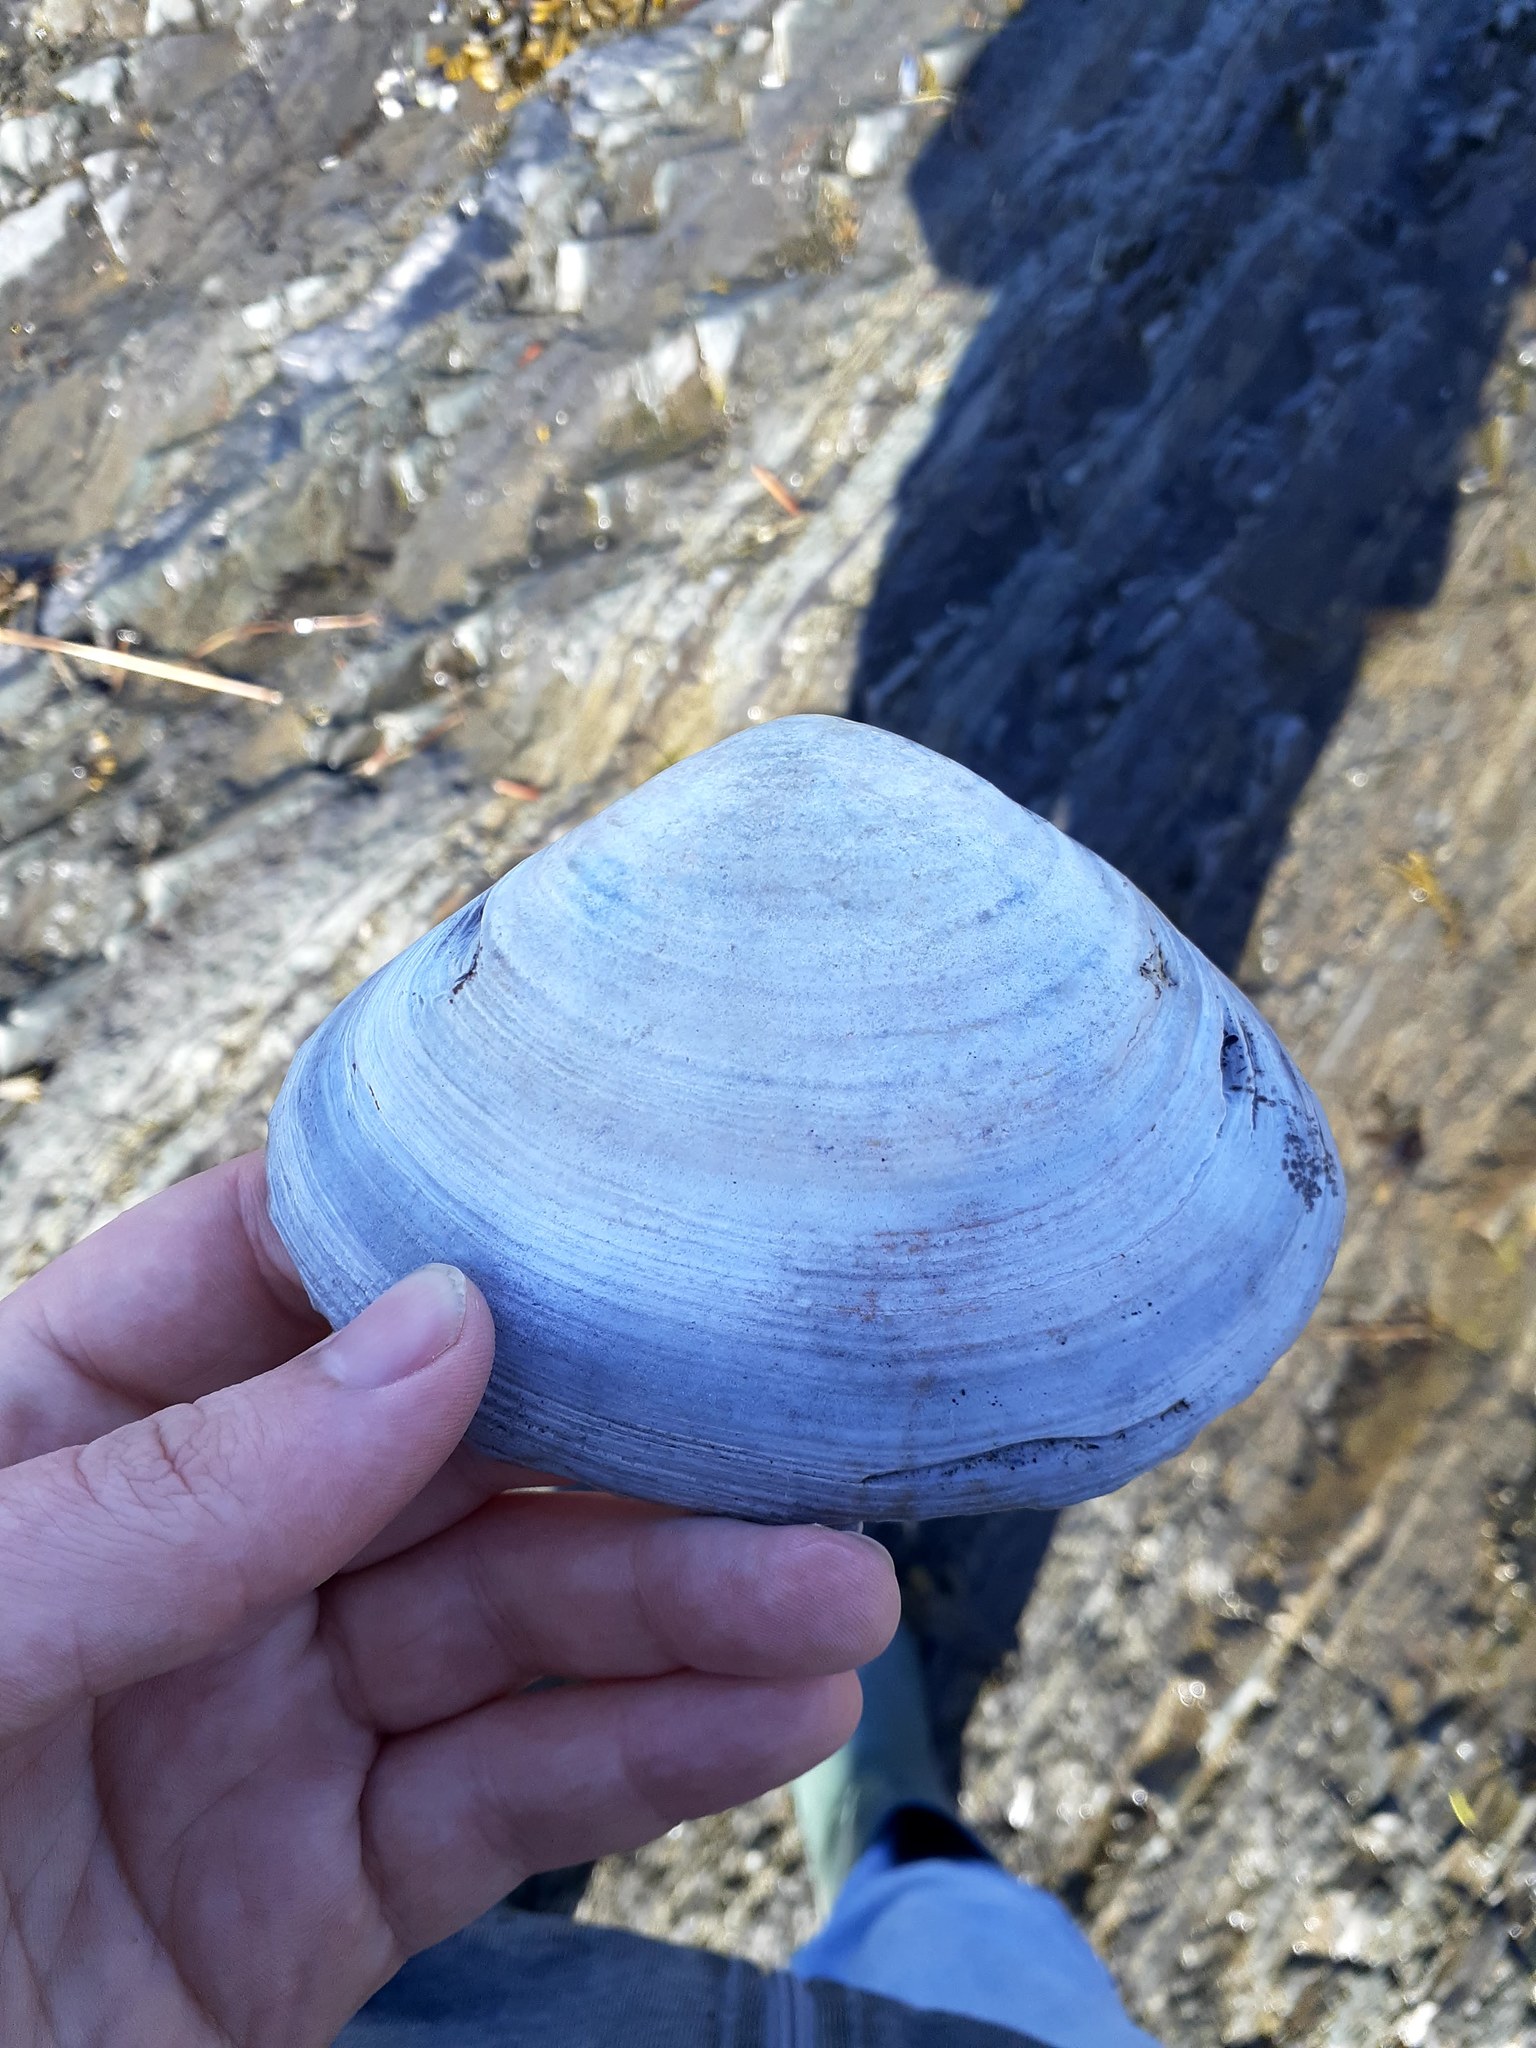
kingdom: Animalia
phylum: Mollusca
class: Bivalvia
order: Venerida
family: Mactridae
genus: Mactromeris
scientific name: Mactromeris polynyma
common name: Arctic surf clam
